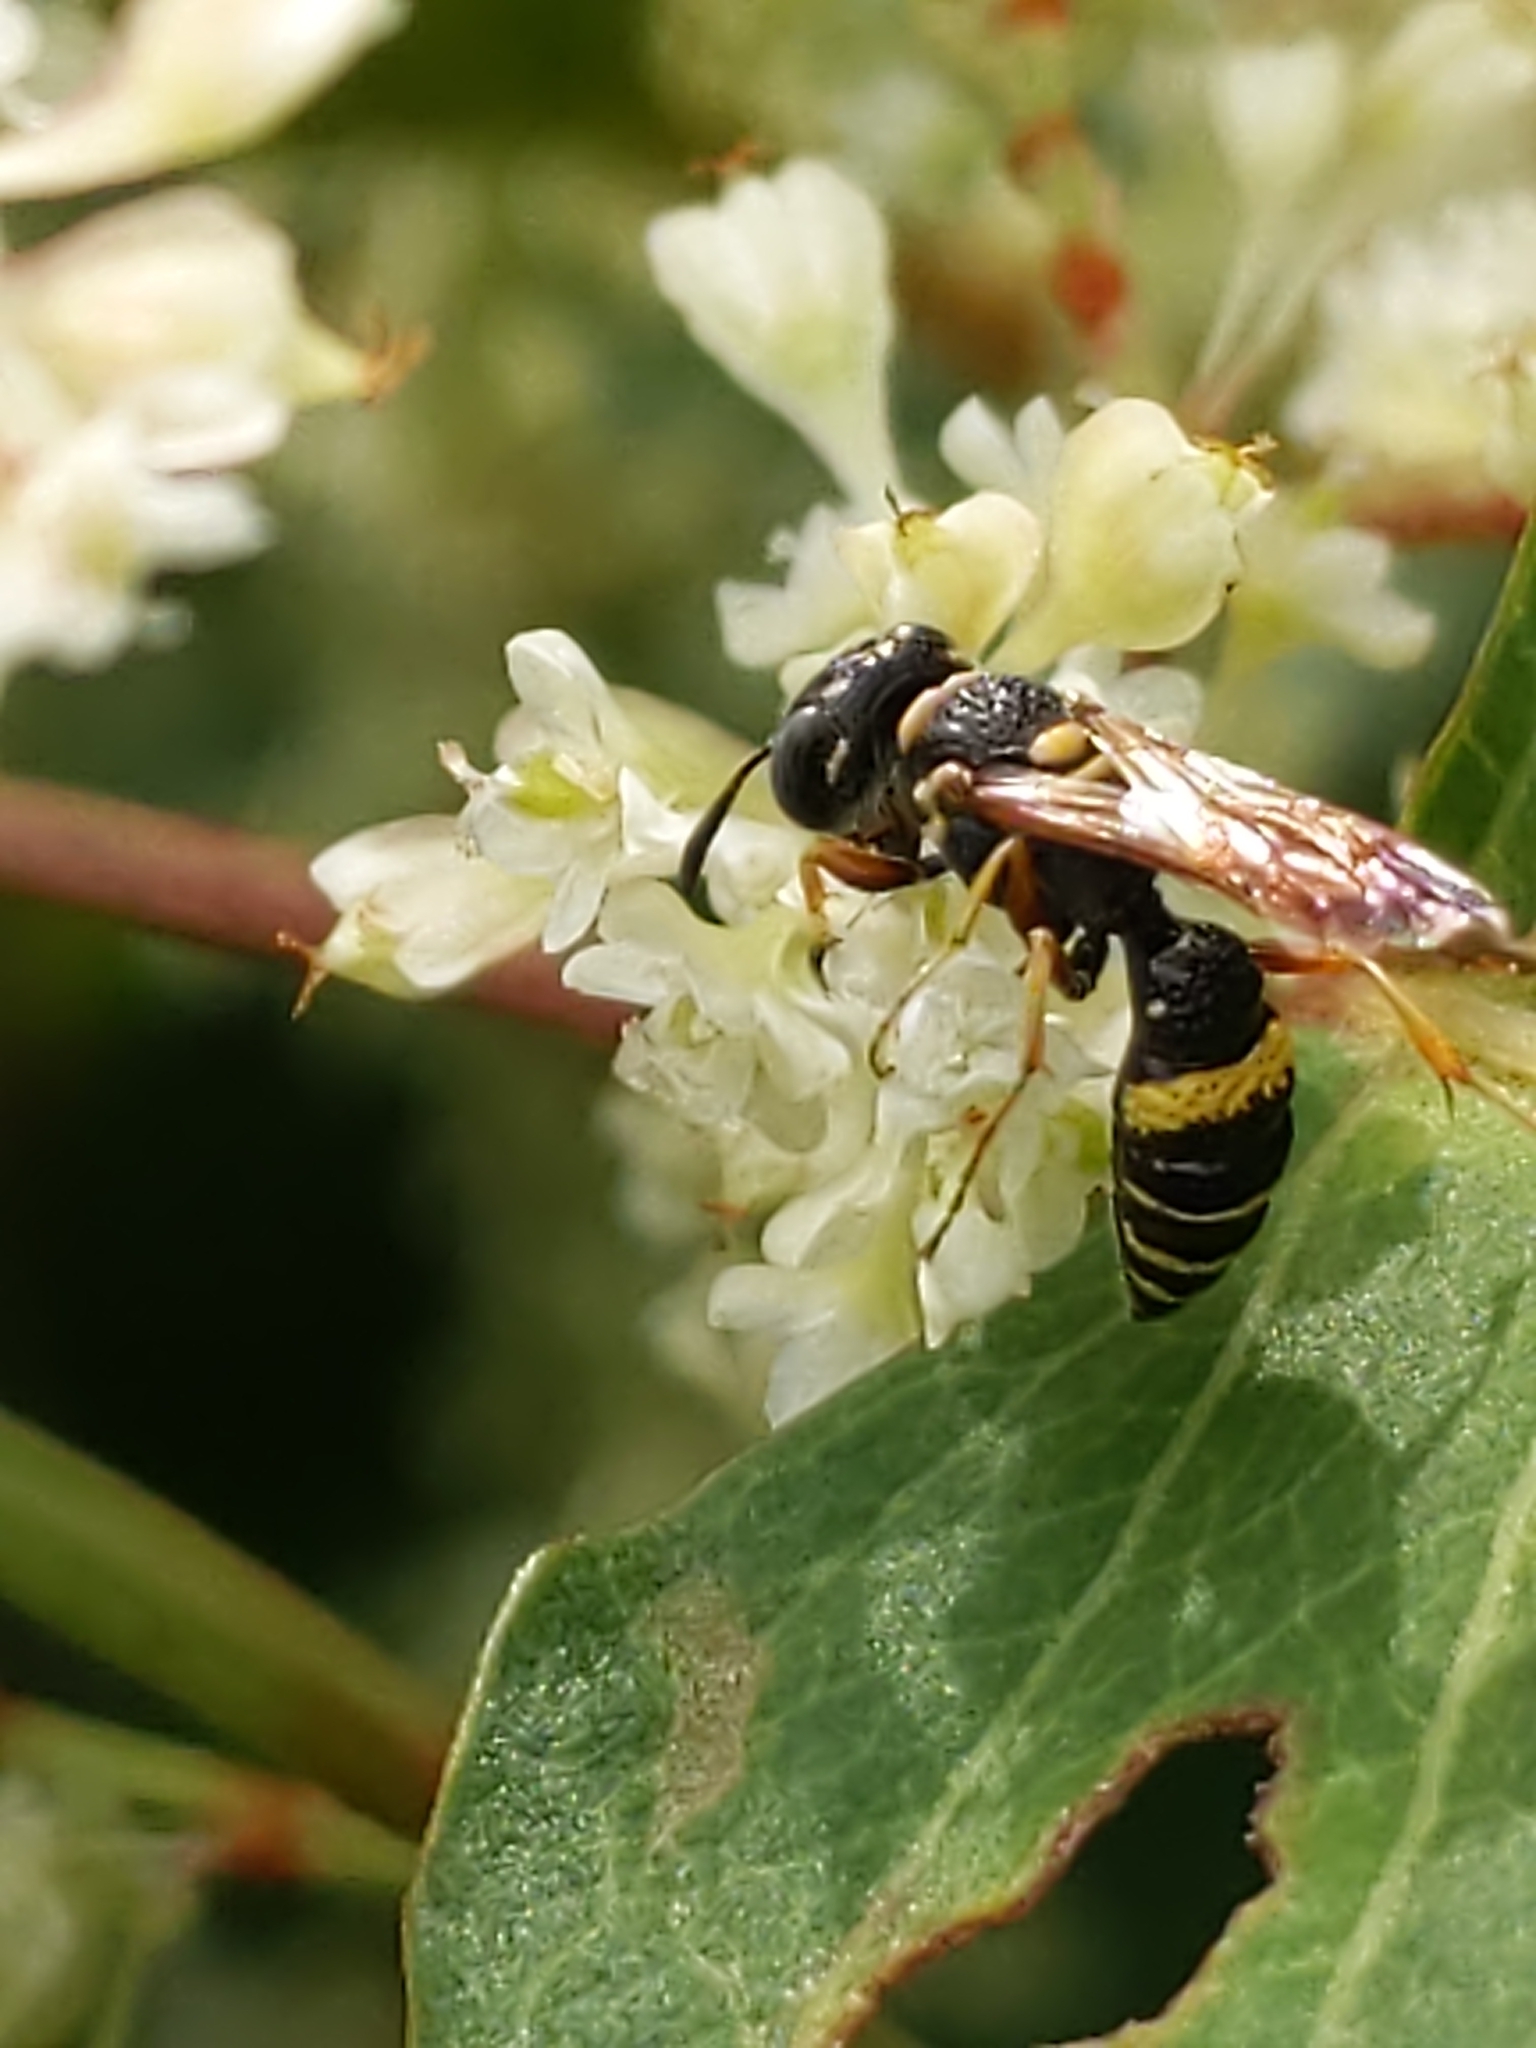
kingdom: Animalia
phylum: Arthropoda
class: Insecta
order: Hymenoptera
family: Crabronidae
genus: Philanthus
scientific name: Philanthus gibbosus
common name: Humped beewolf
